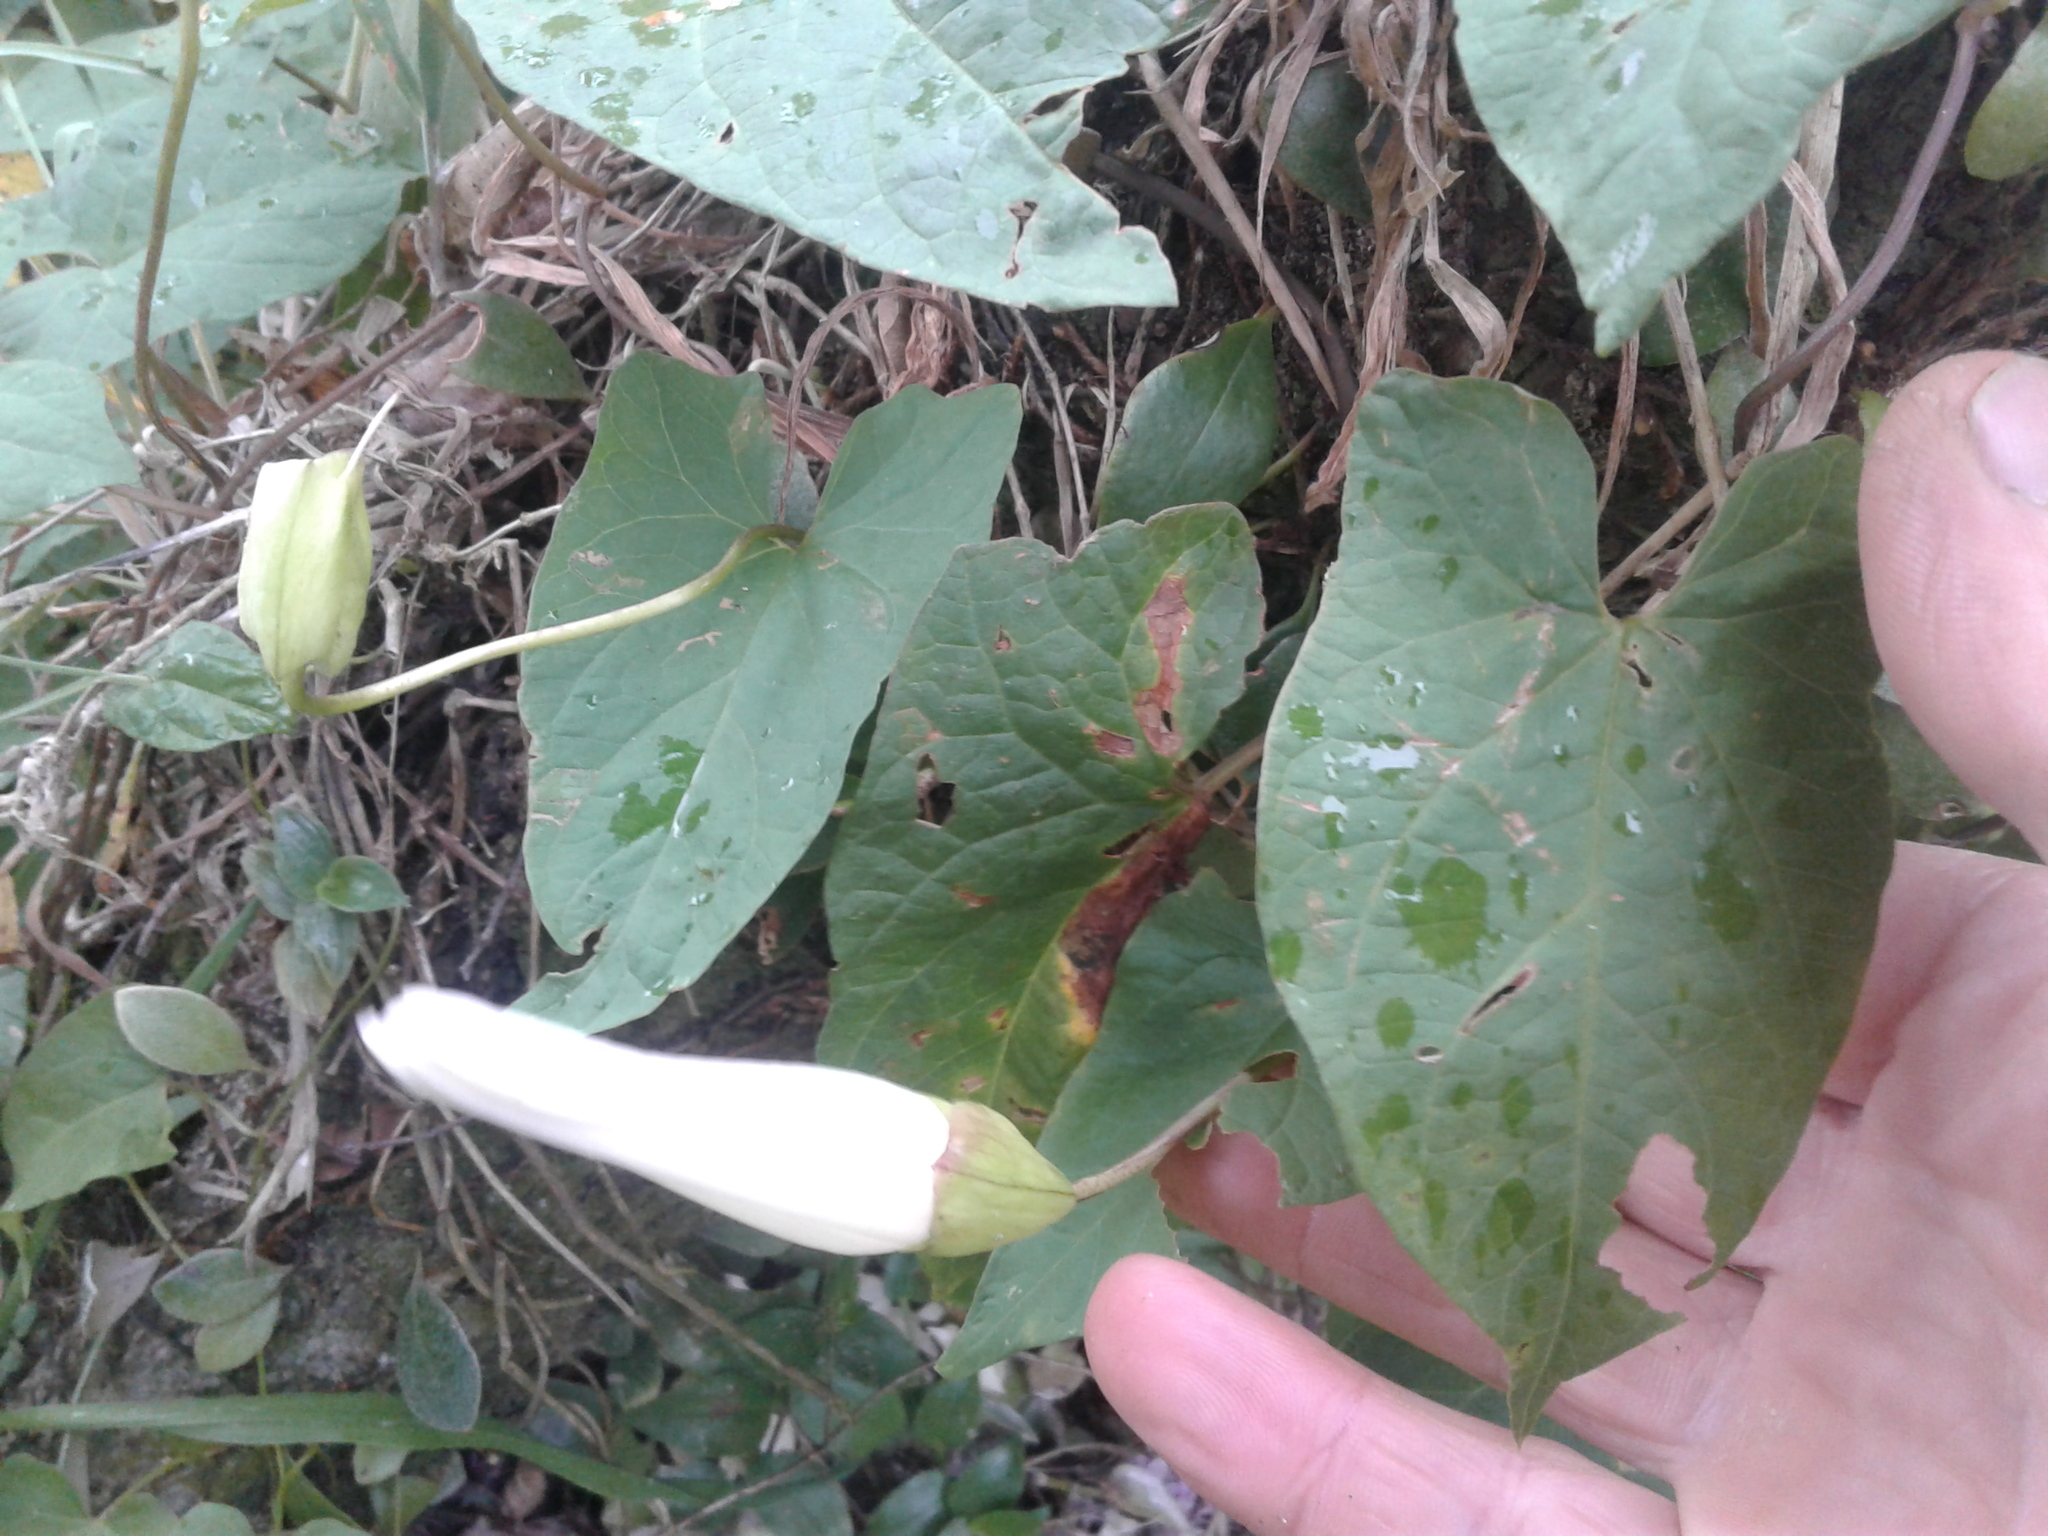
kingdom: Plantae
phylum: Tracheophyta
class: Magnoliopsida
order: Solanales
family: Convolvulaceae
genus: Calystegia
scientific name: Calystegia sepium
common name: Hedge bindweed
